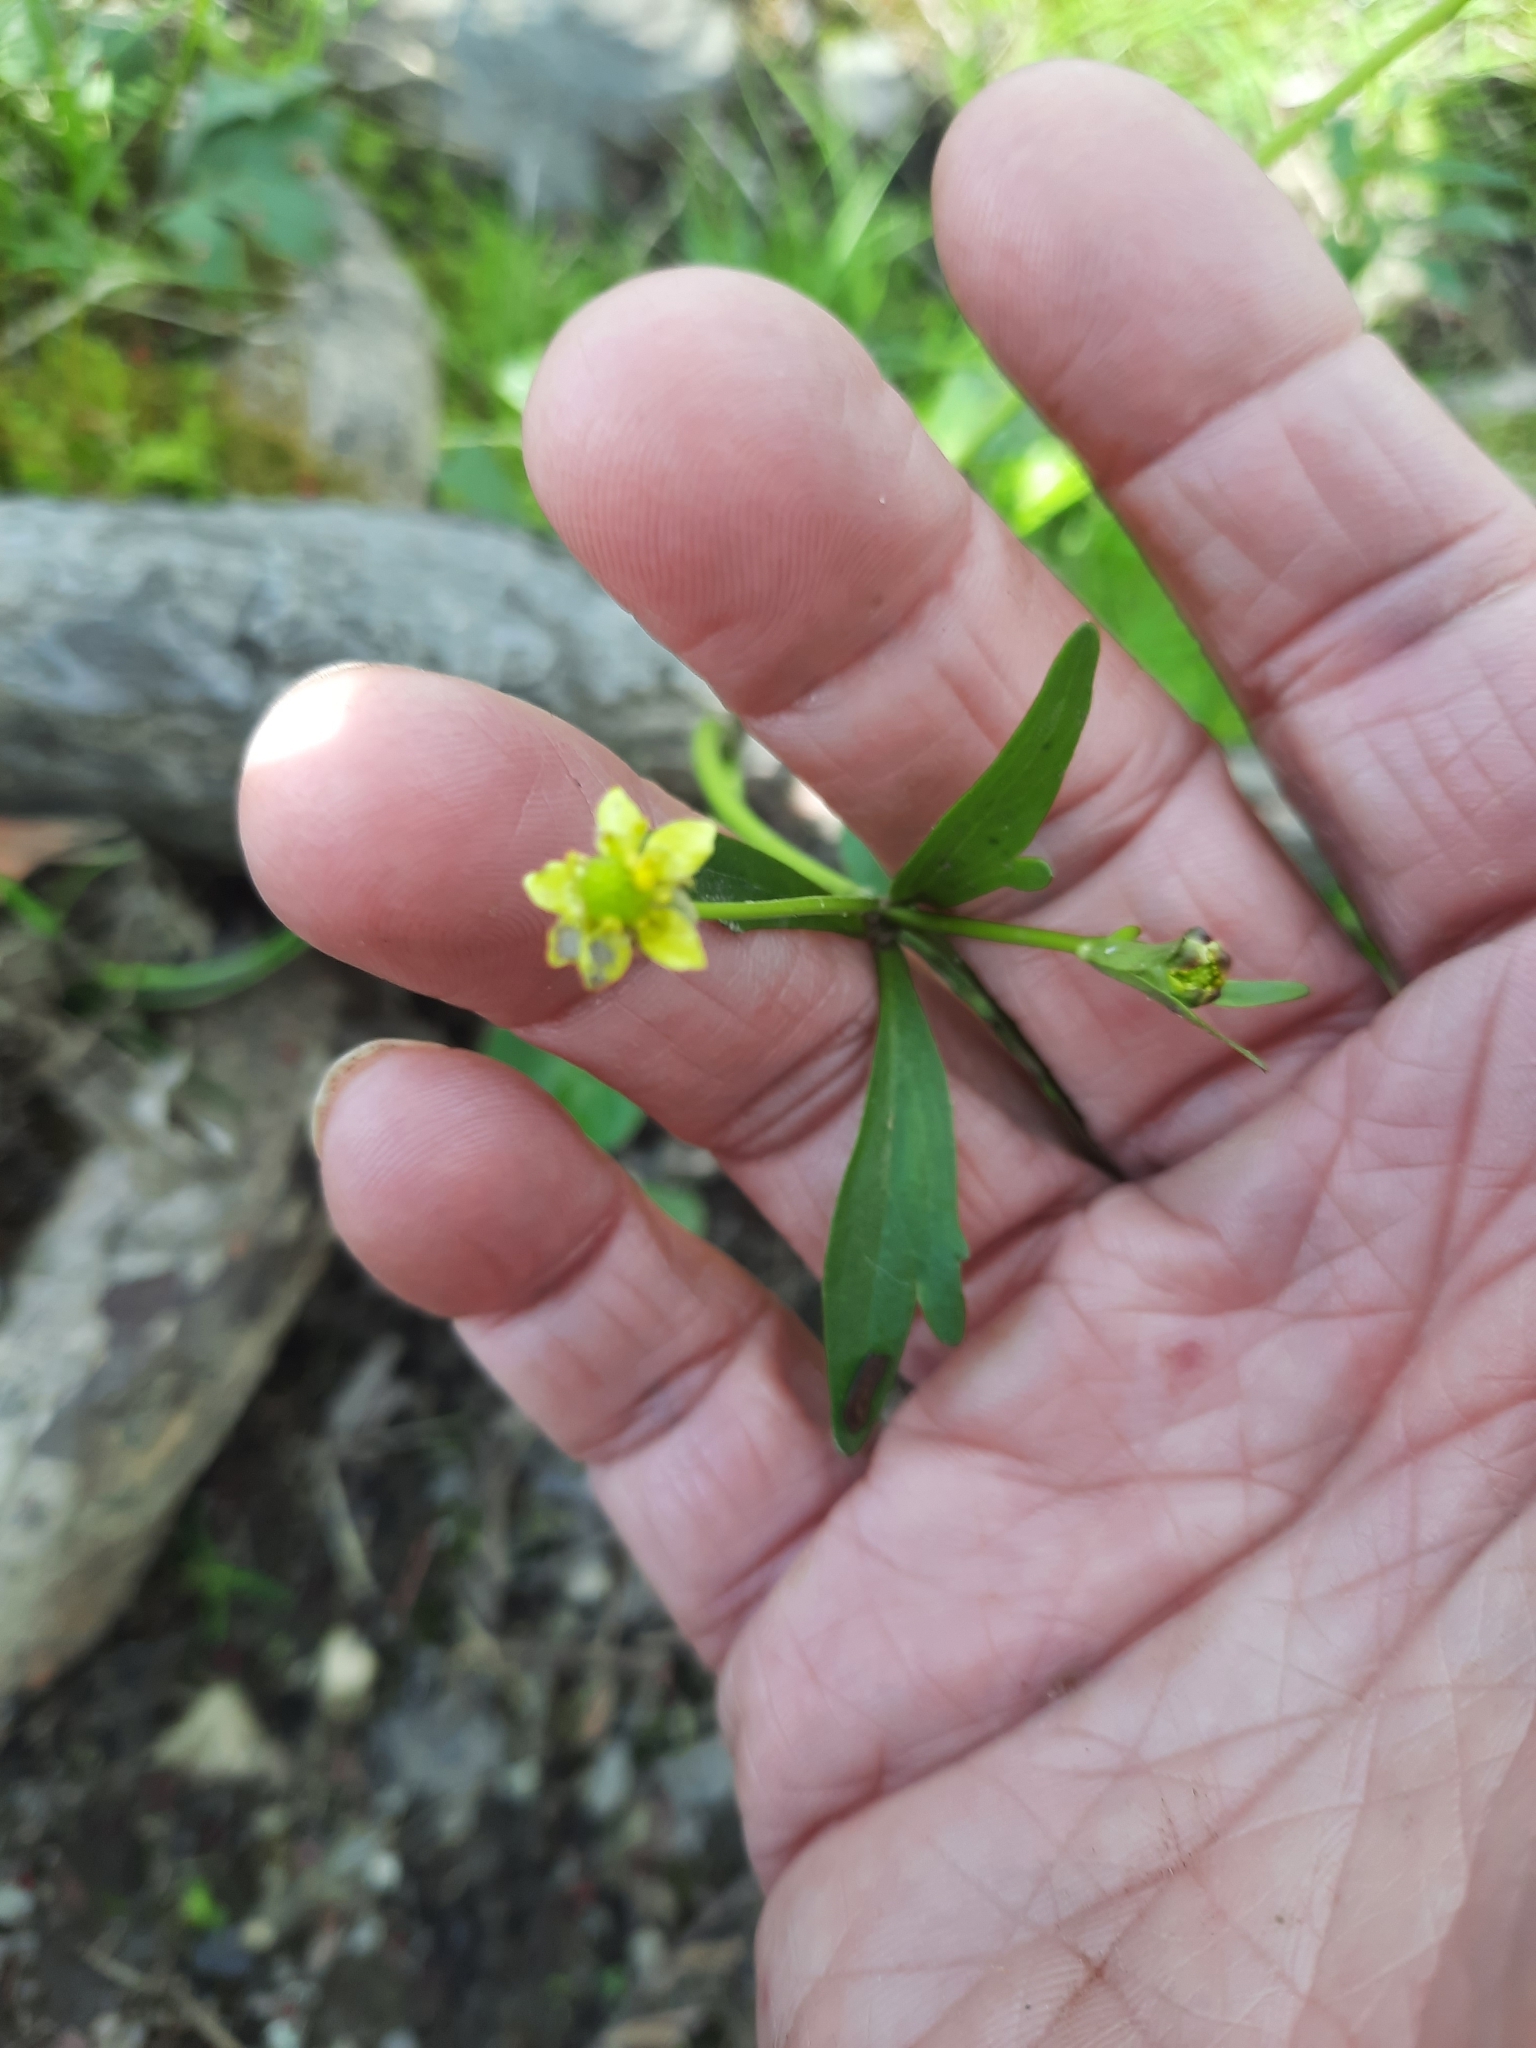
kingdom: Plantae
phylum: Tracheophyta
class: Magnoliopsida
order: Ranunculales
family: Ranunculaceae
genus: Ranunculus
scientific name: Ranunculus abortivus
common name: Early wood buttercup
